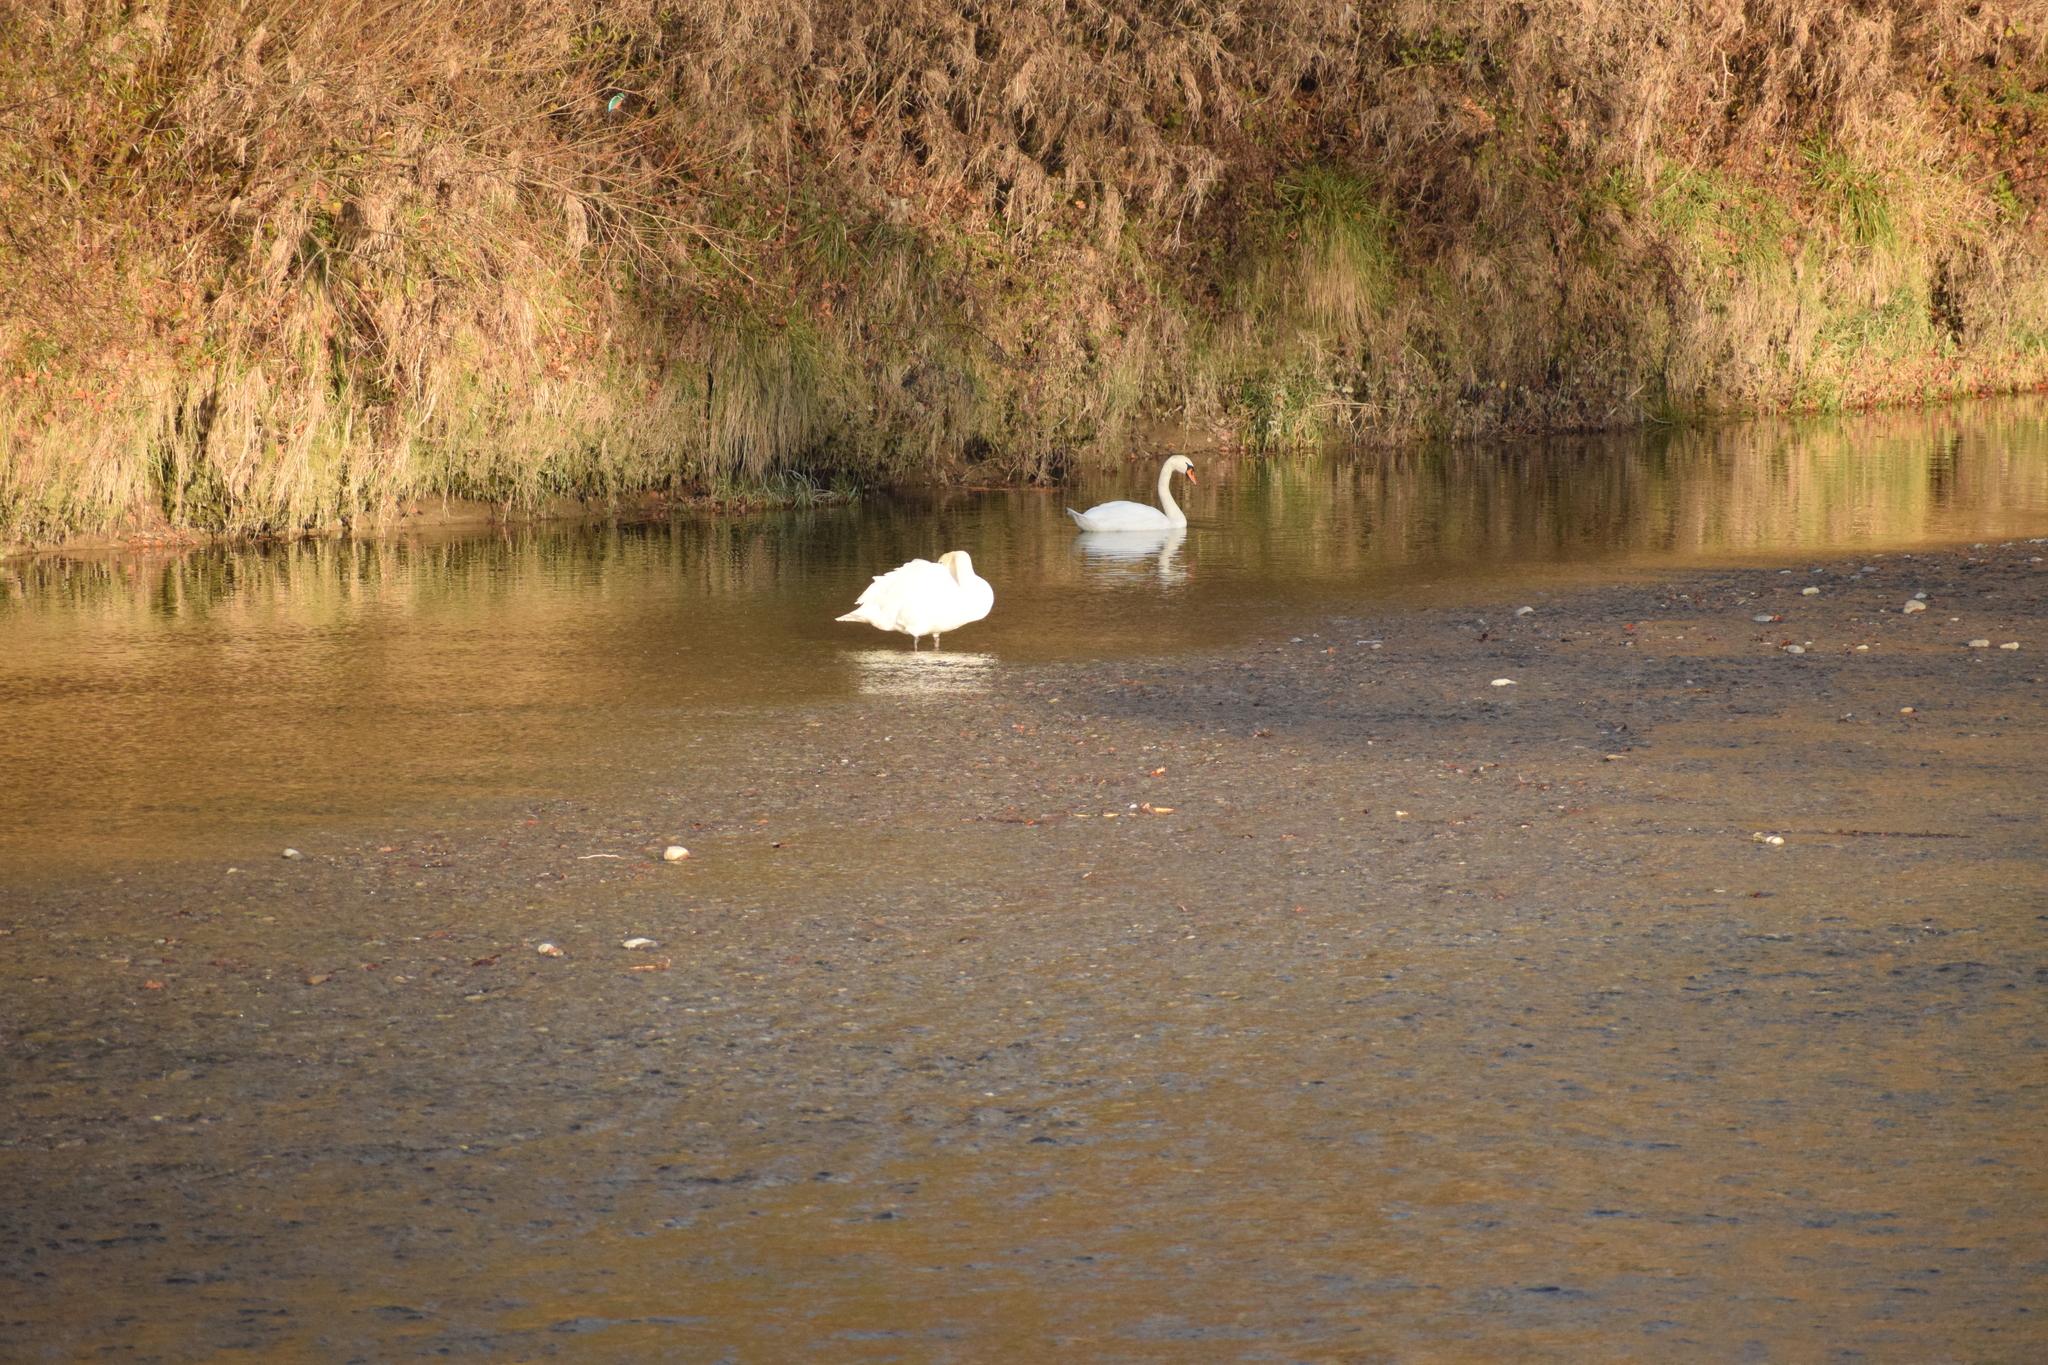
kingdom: Animalia
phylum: Chordata
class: Aves
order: Anseriformes
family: Anatidae
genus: Cygnus
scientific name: Cygnus olor
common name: Mute swan
